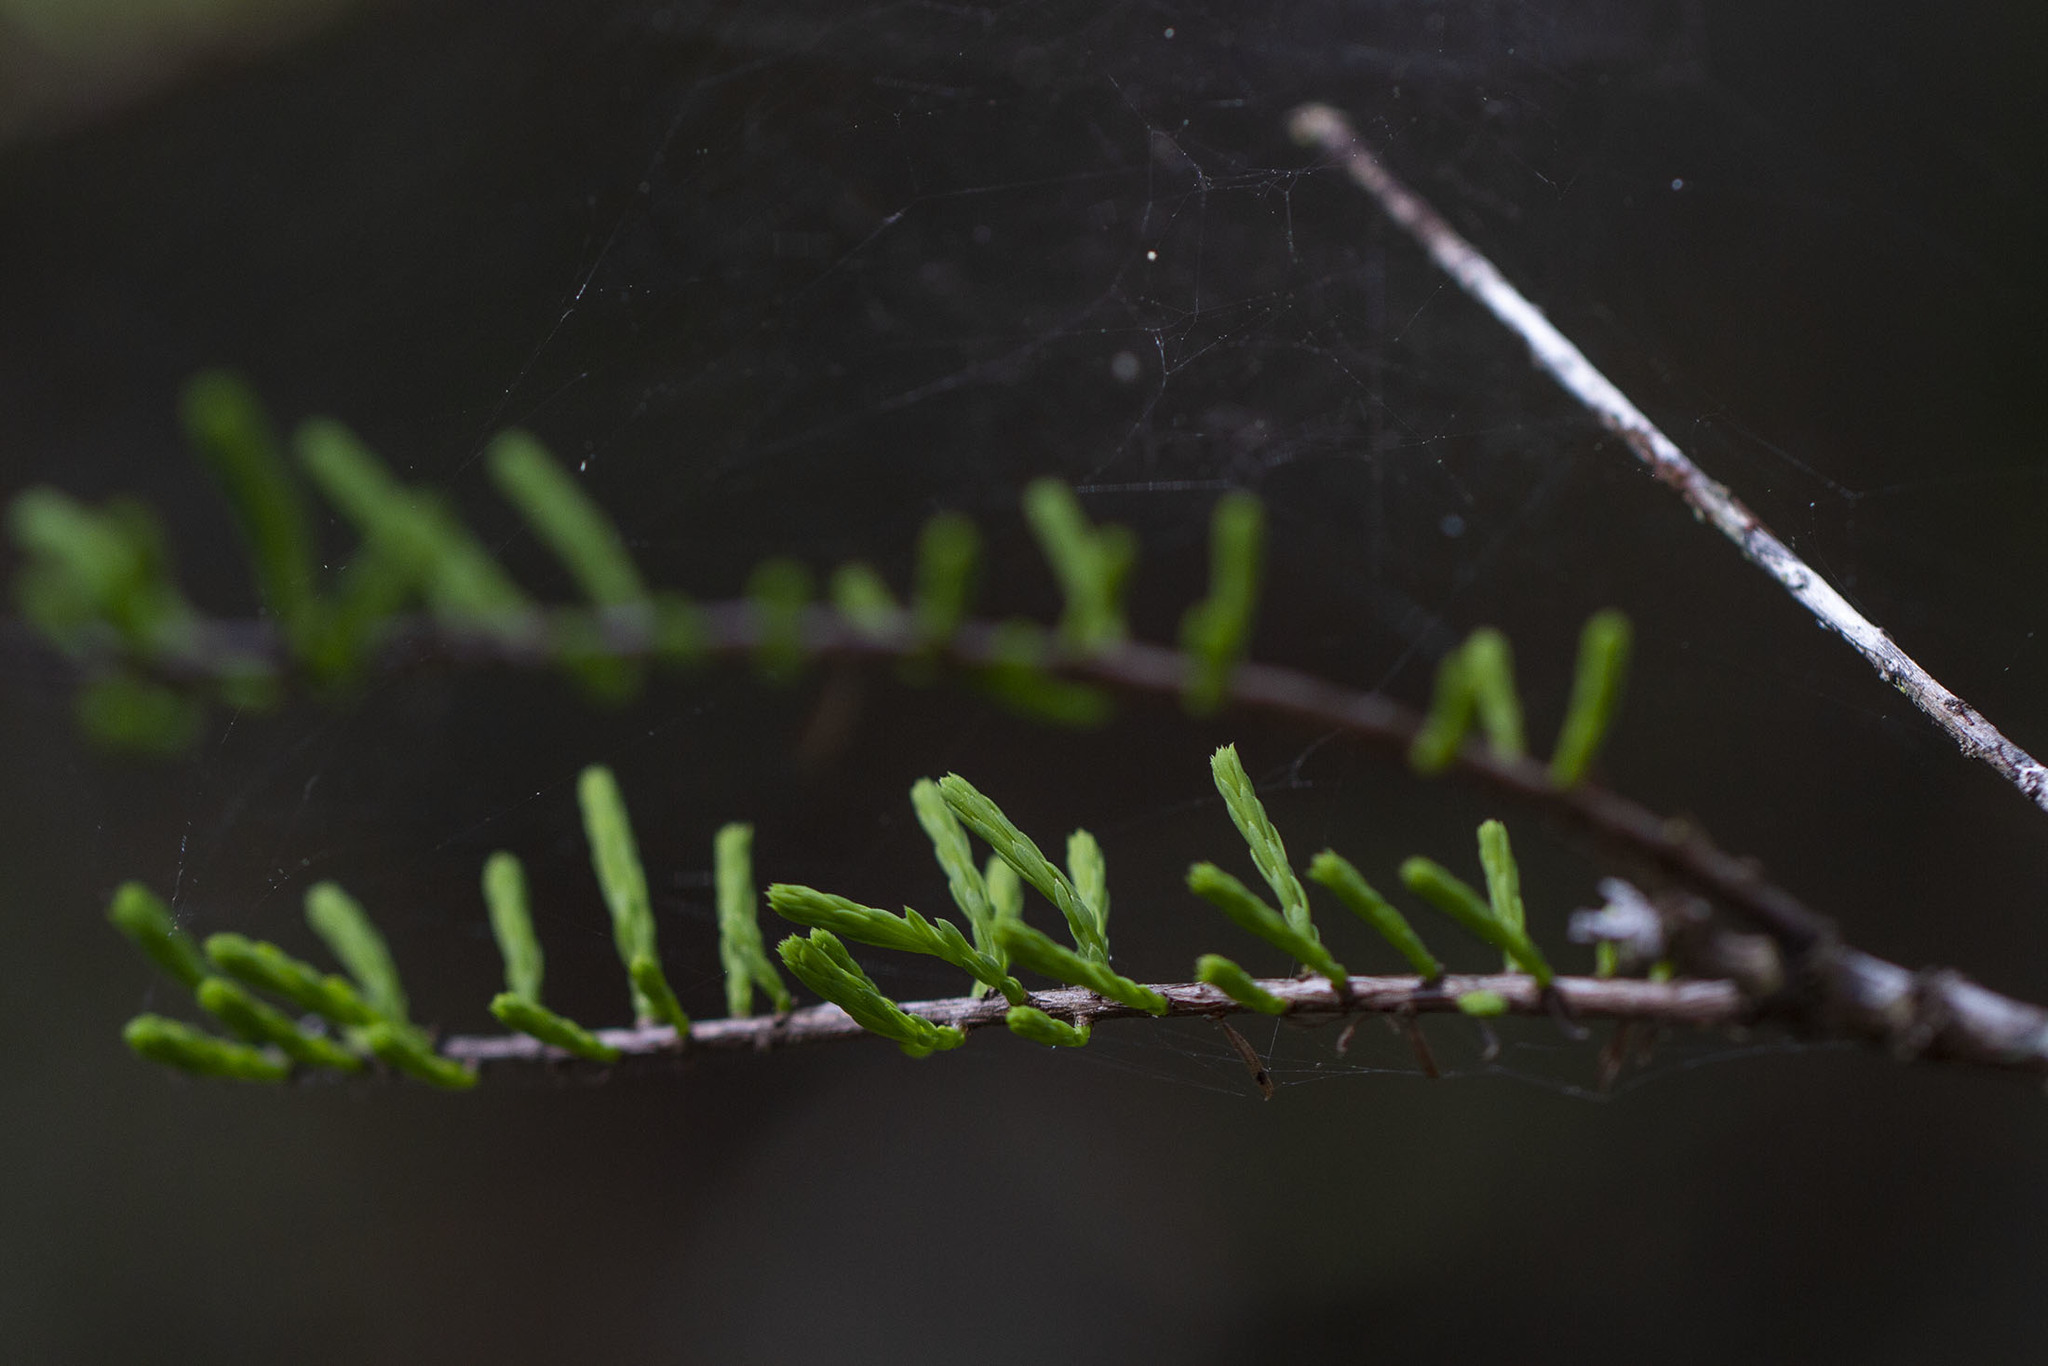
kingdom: Plantae
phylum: Tracheophyta
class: Pinopsida
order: Pinales
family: Cupressaceae
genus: Taxodium
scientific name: Taxodium distichum
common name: Bald cypress
